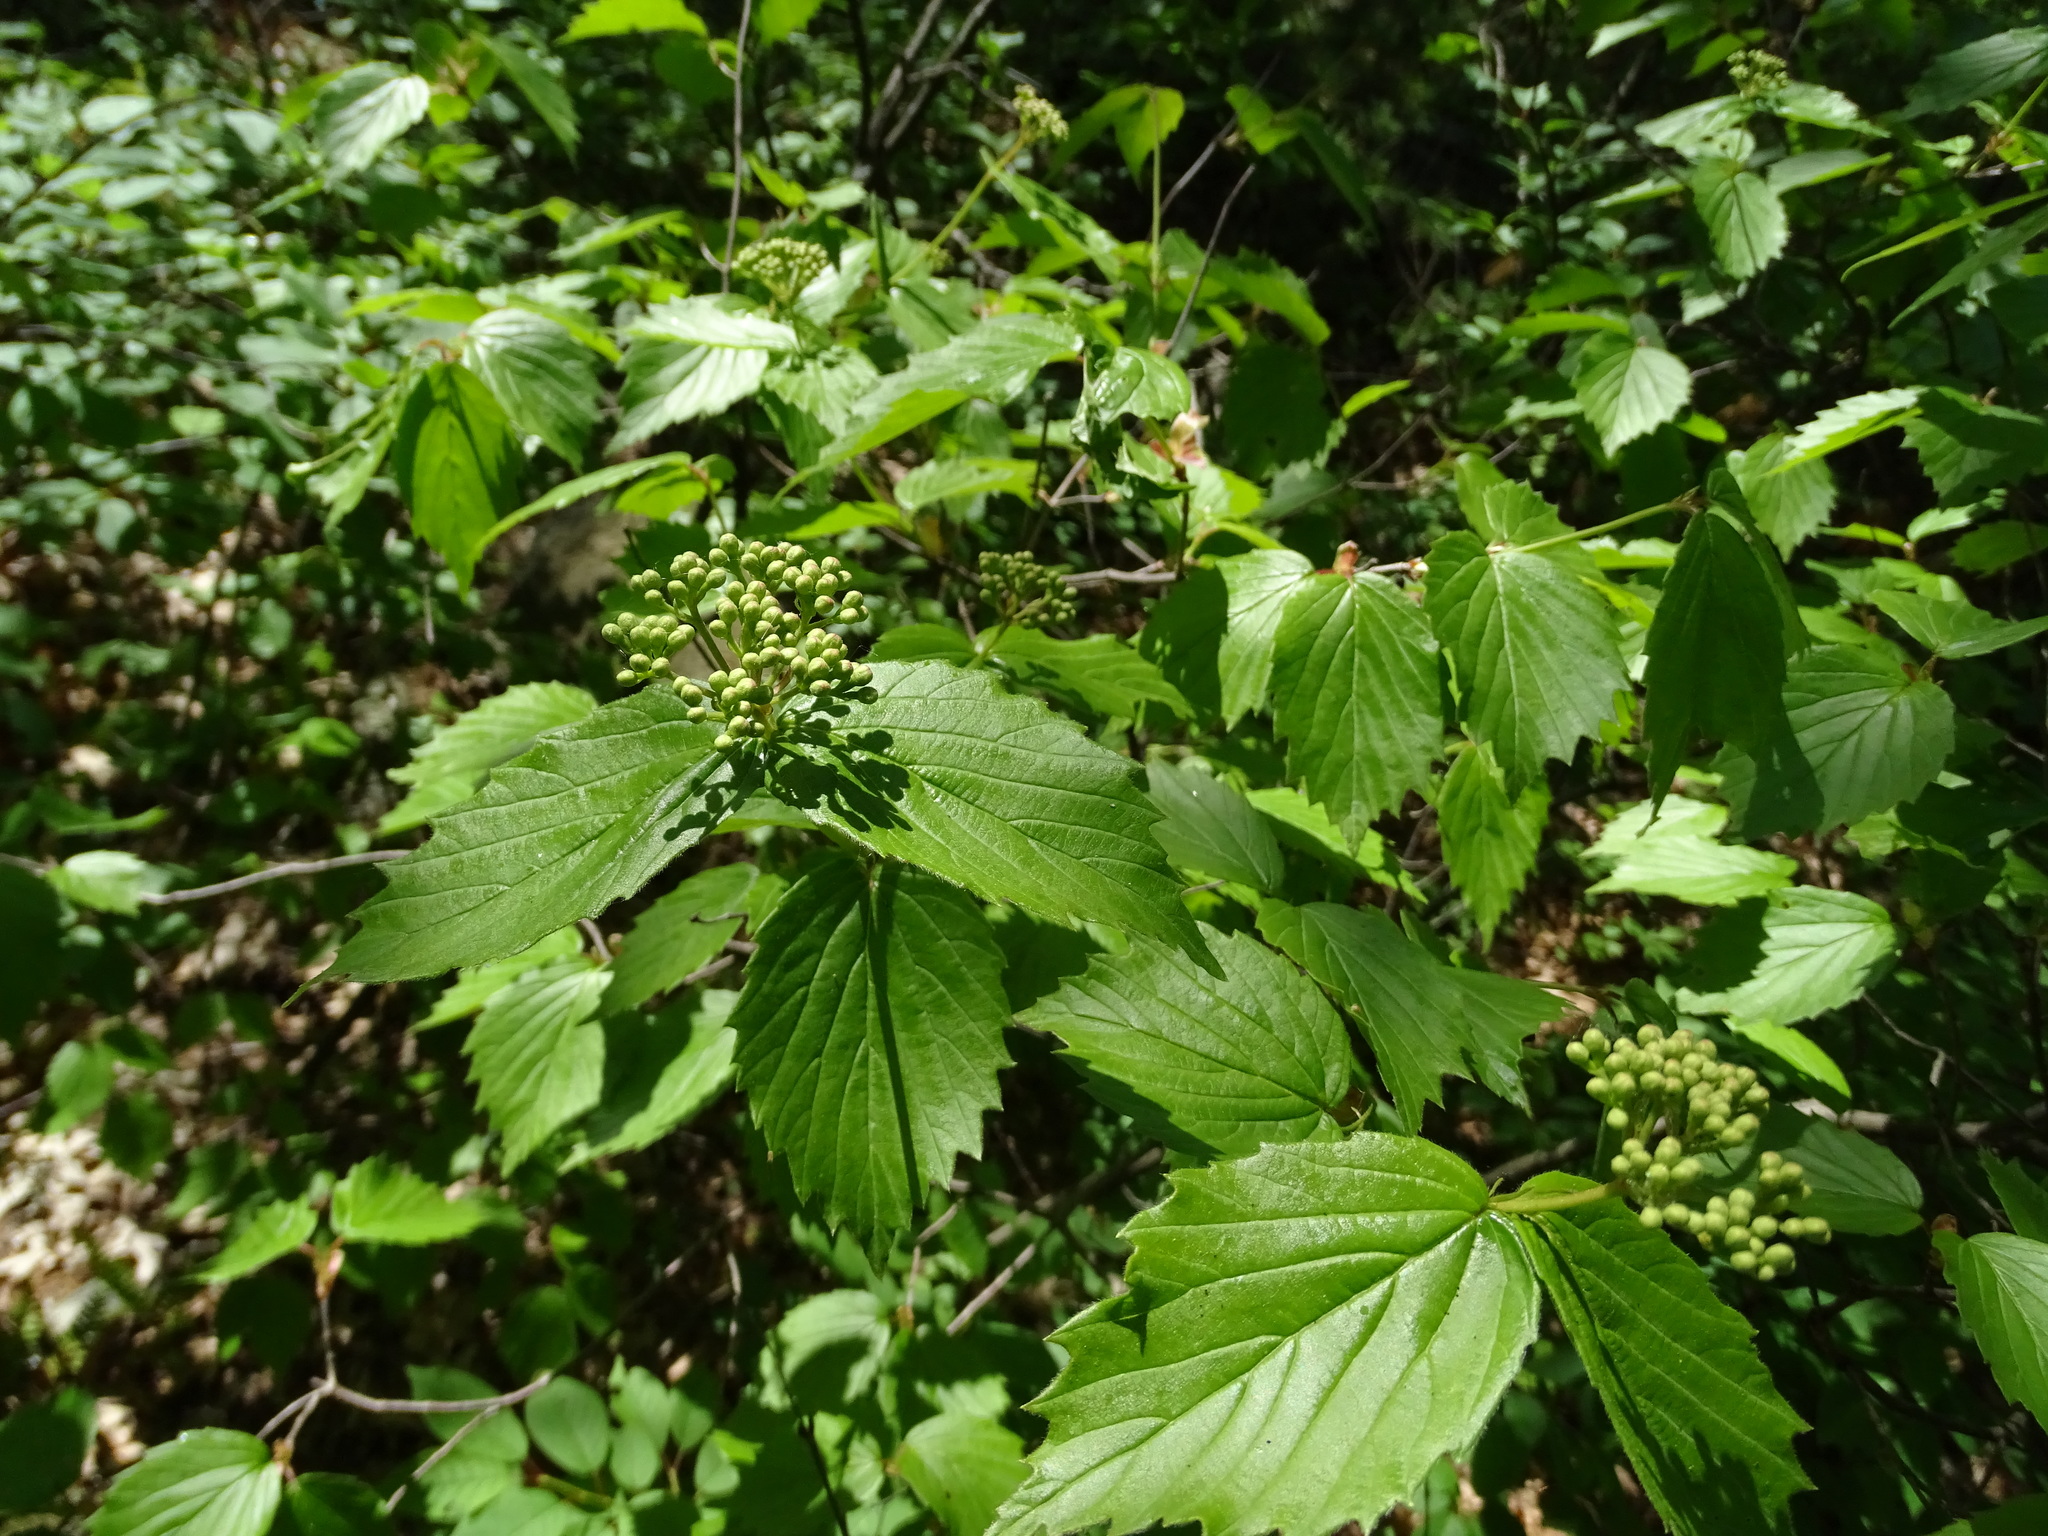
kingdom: Plantae
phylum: Tracheophyta
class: Magnoliopsida
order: Dipsacales
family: Viburnaceae
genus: Viburnum
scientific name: Viburnum rafinesqueanum
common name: Downy arrow-wood
